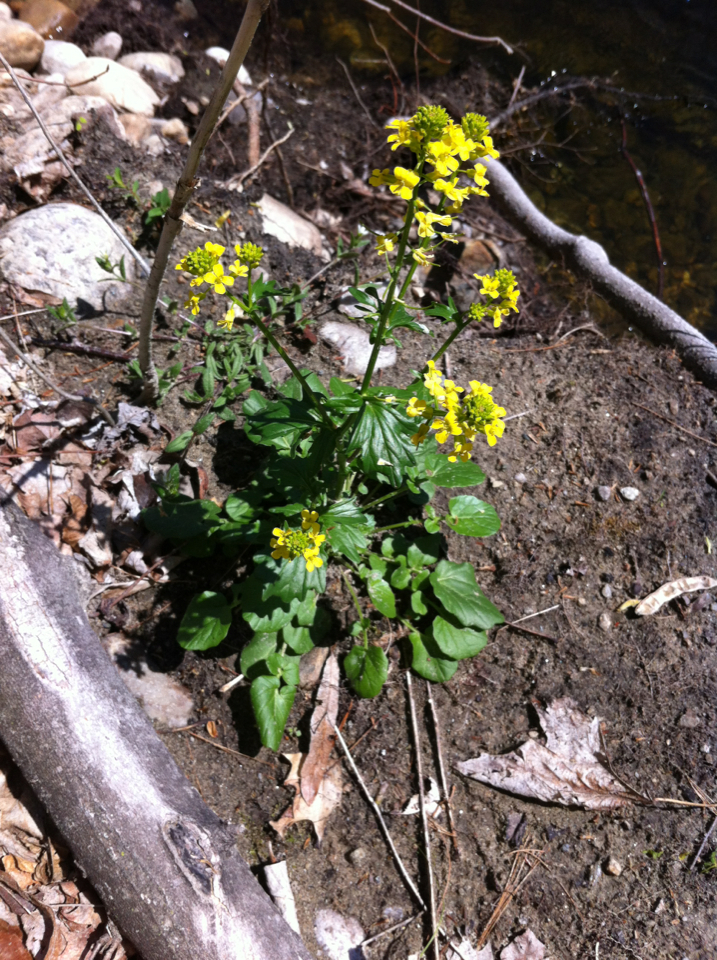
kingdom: Plantae
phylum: Tracheophyta
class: Magnoliopsida
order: Brassicales
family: Brassicaceae
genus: Barbarea
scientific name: Barbarea vulgaris
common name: Cressy-greens
